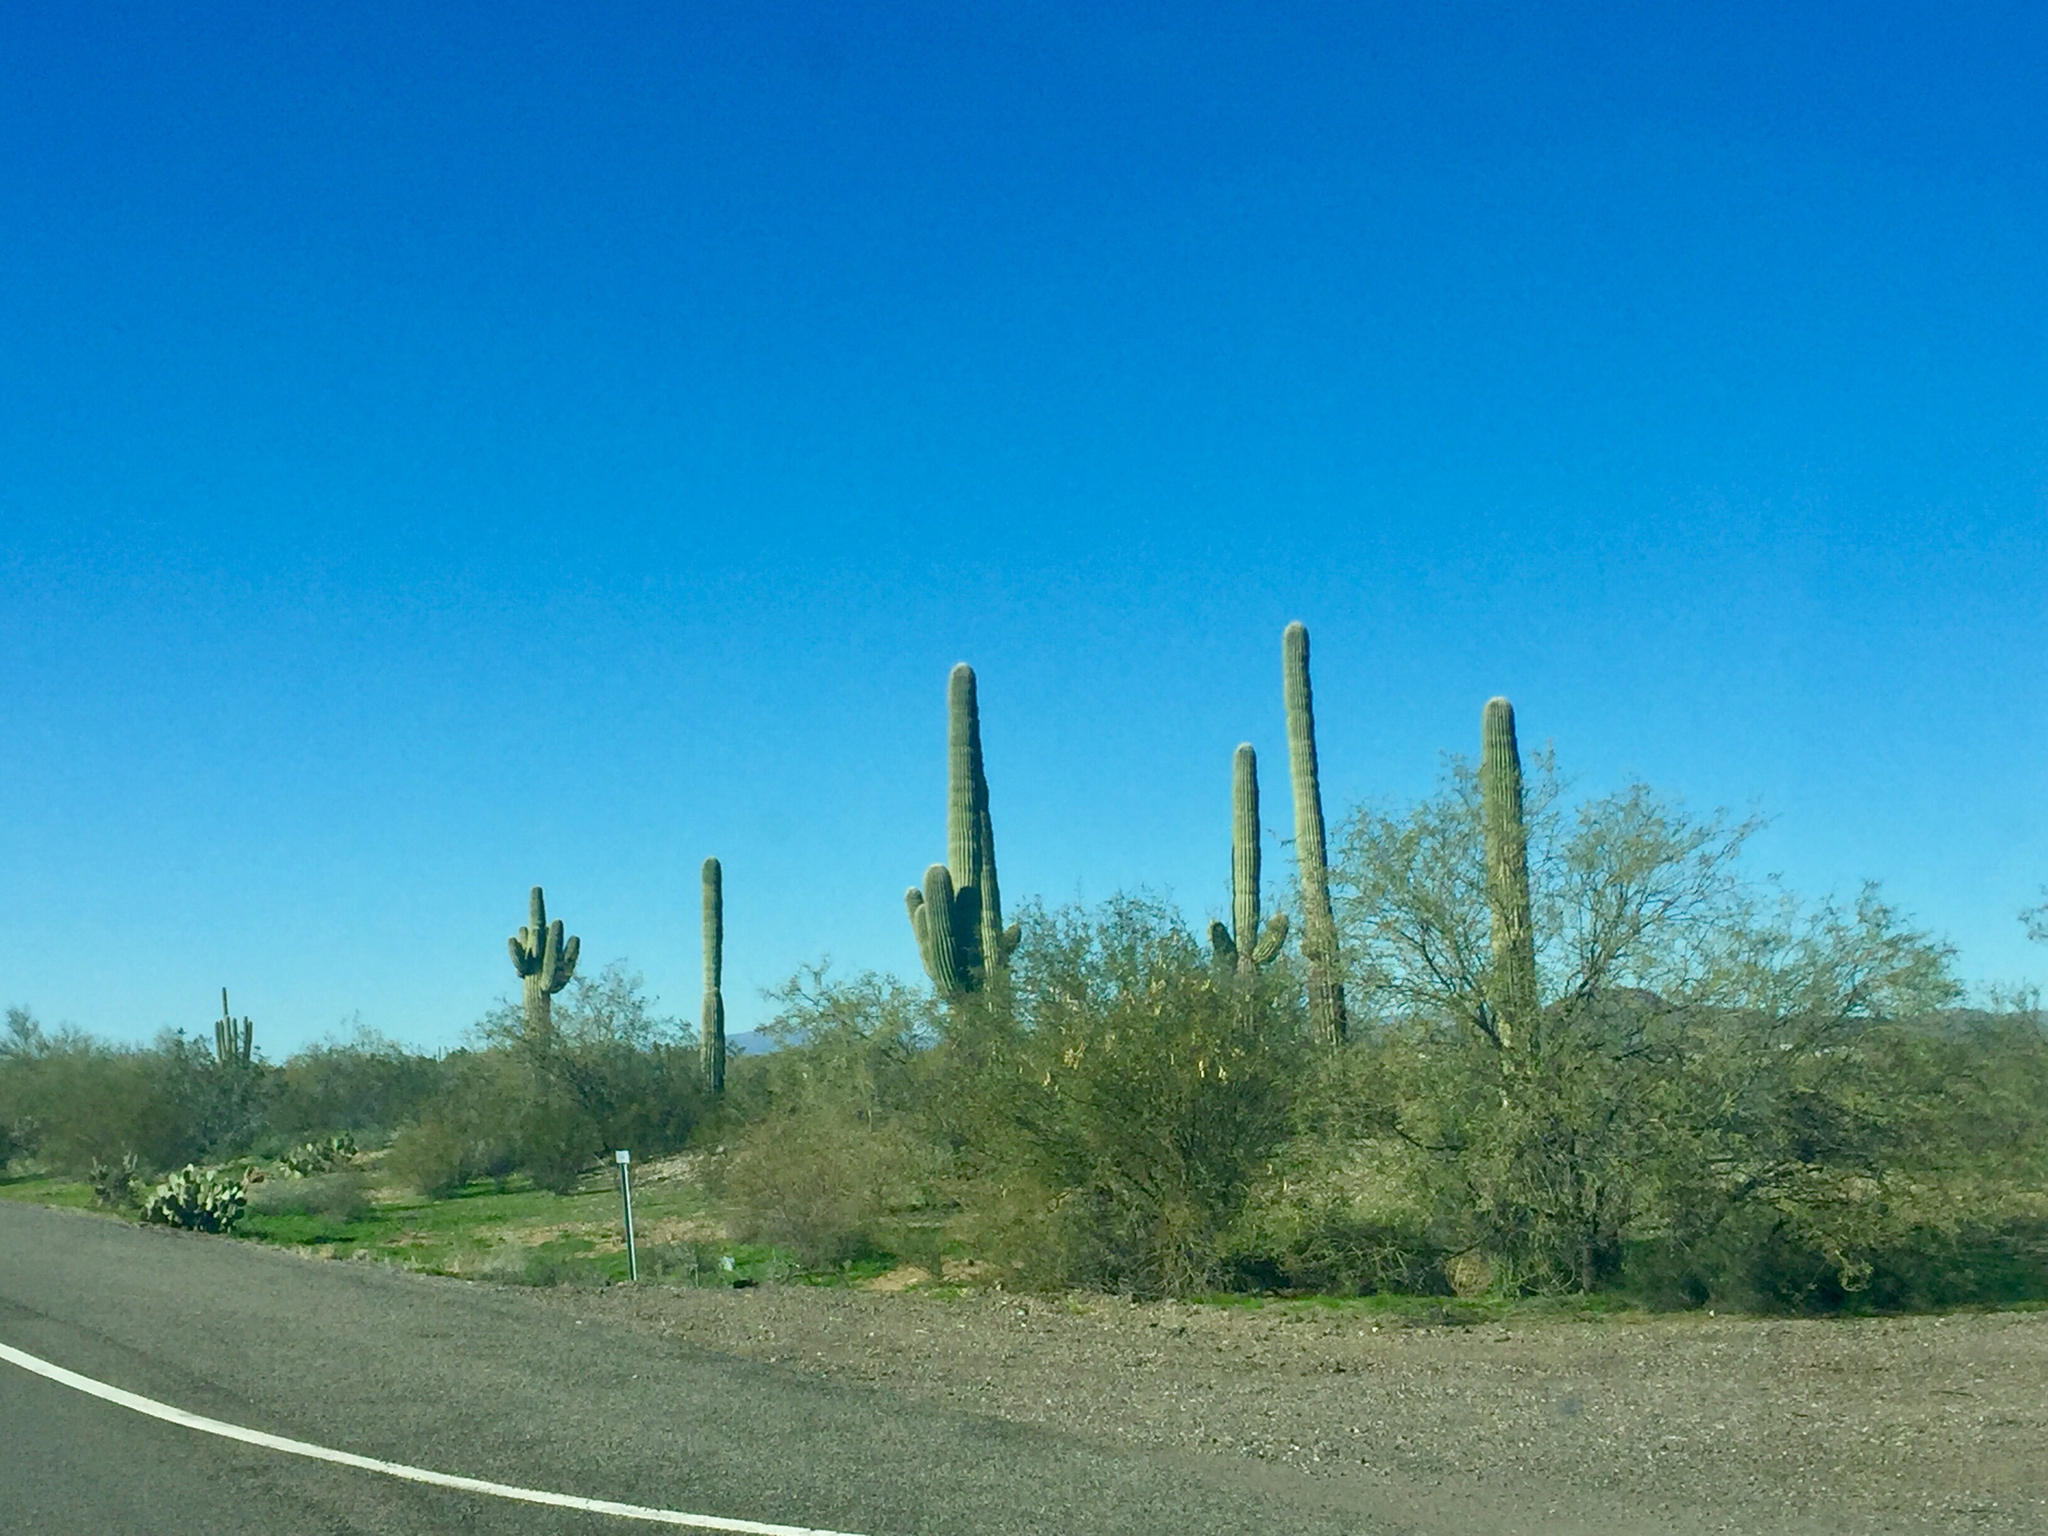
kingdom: Plantae
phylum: Tracheophyta
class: Magnoliopsida
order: Caryophyllales
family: Cactaceae
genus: Carnegiea
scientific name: Carnegiea gigantea
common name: Saguaro
